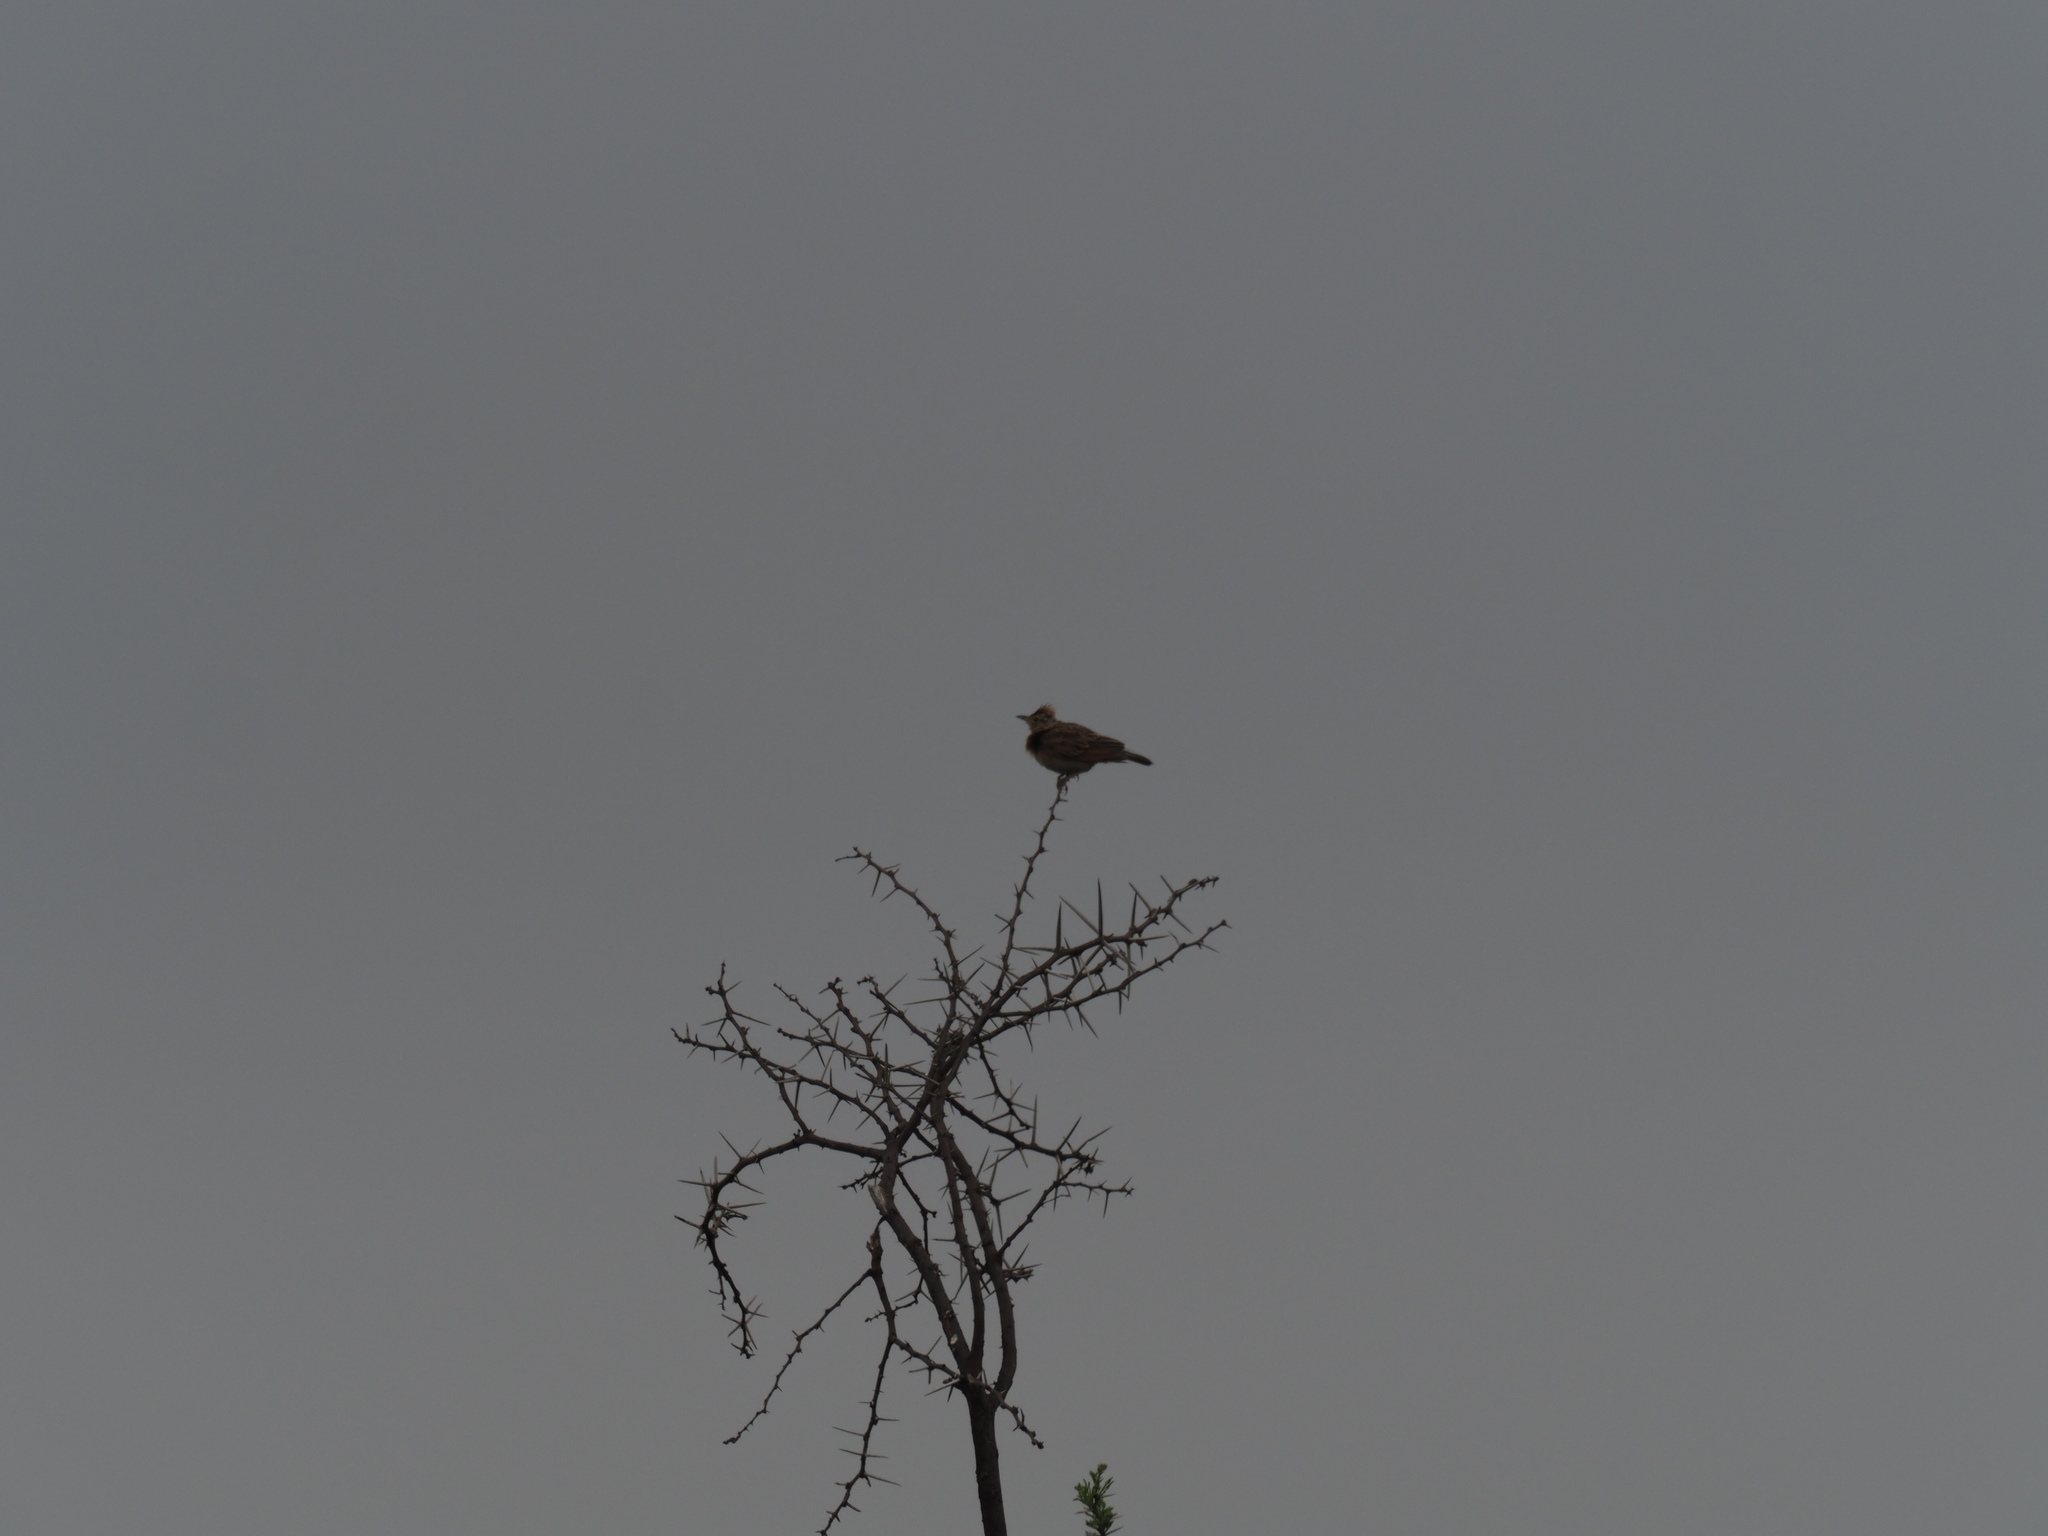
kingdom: Animalia
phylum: Chordata
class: Aves
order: Passeriformes
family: Alaudidae
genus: Mirafra
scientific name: Mirafra africana
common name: Rufous-naped lark
